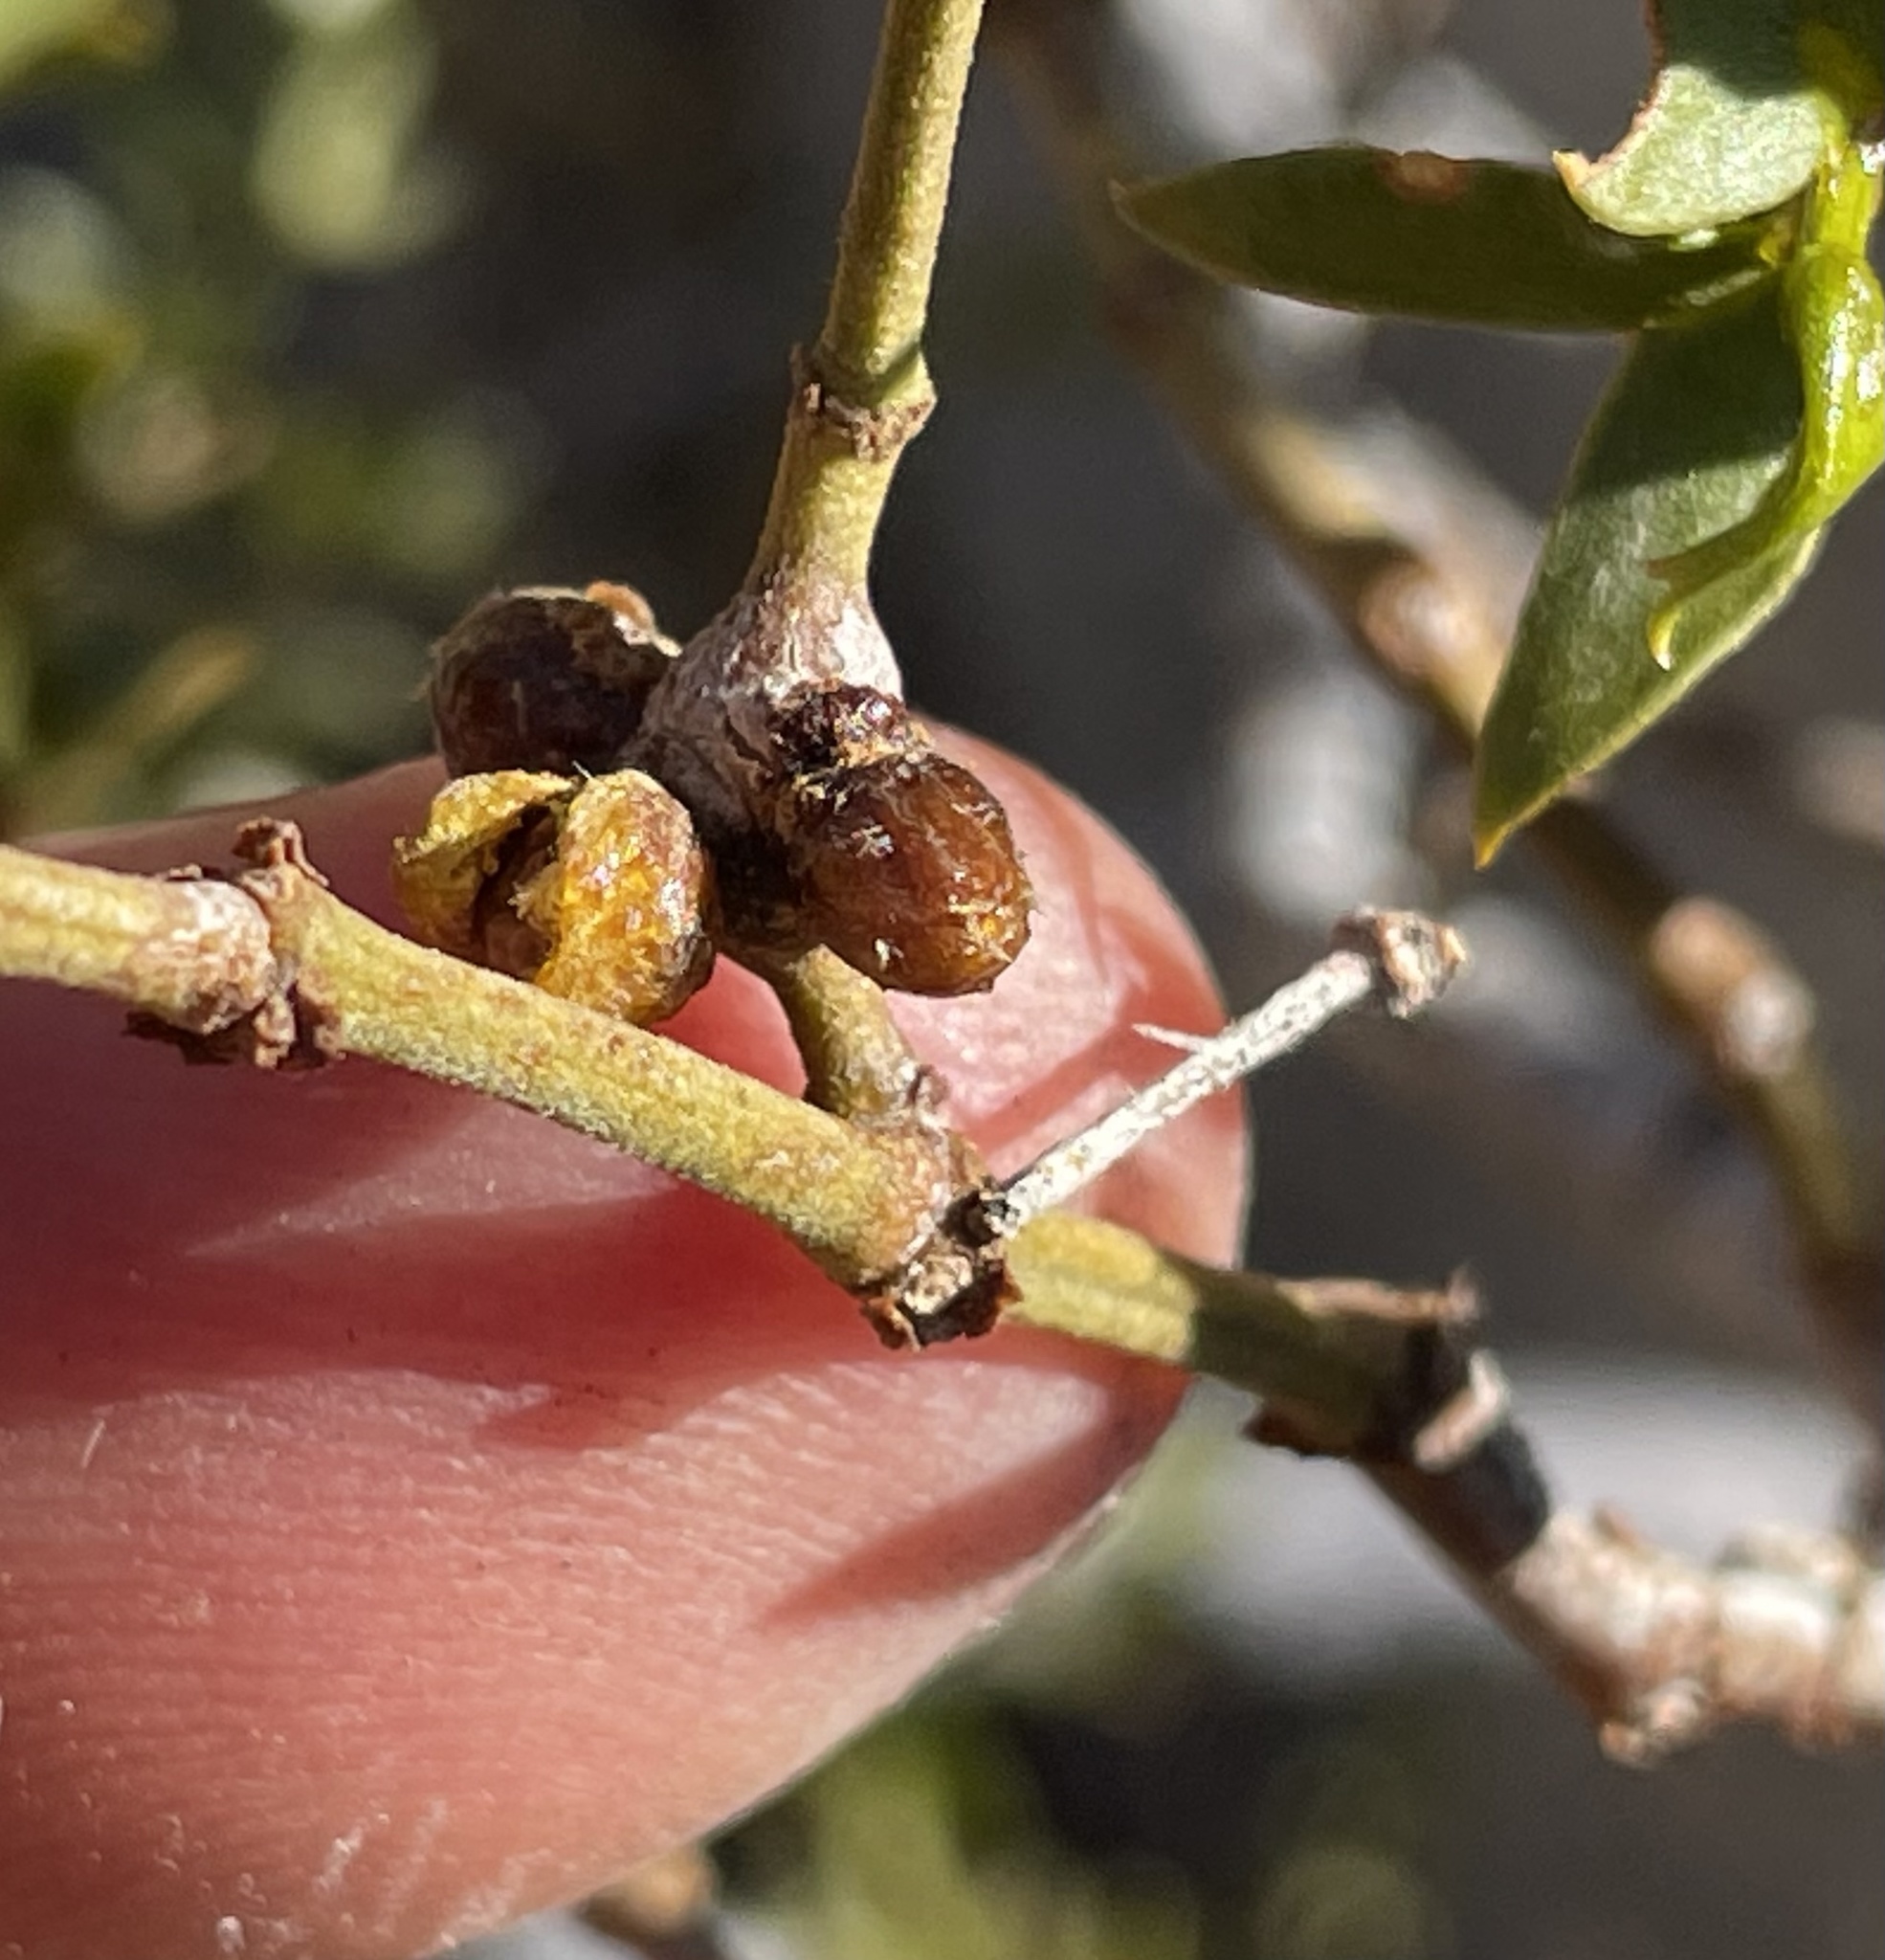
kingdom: Animalia
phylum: Arthropoda
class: Insecta
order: Diptera
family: Cecidomyiidae
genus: Asphondylia
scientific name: Asphondylia resinosa
